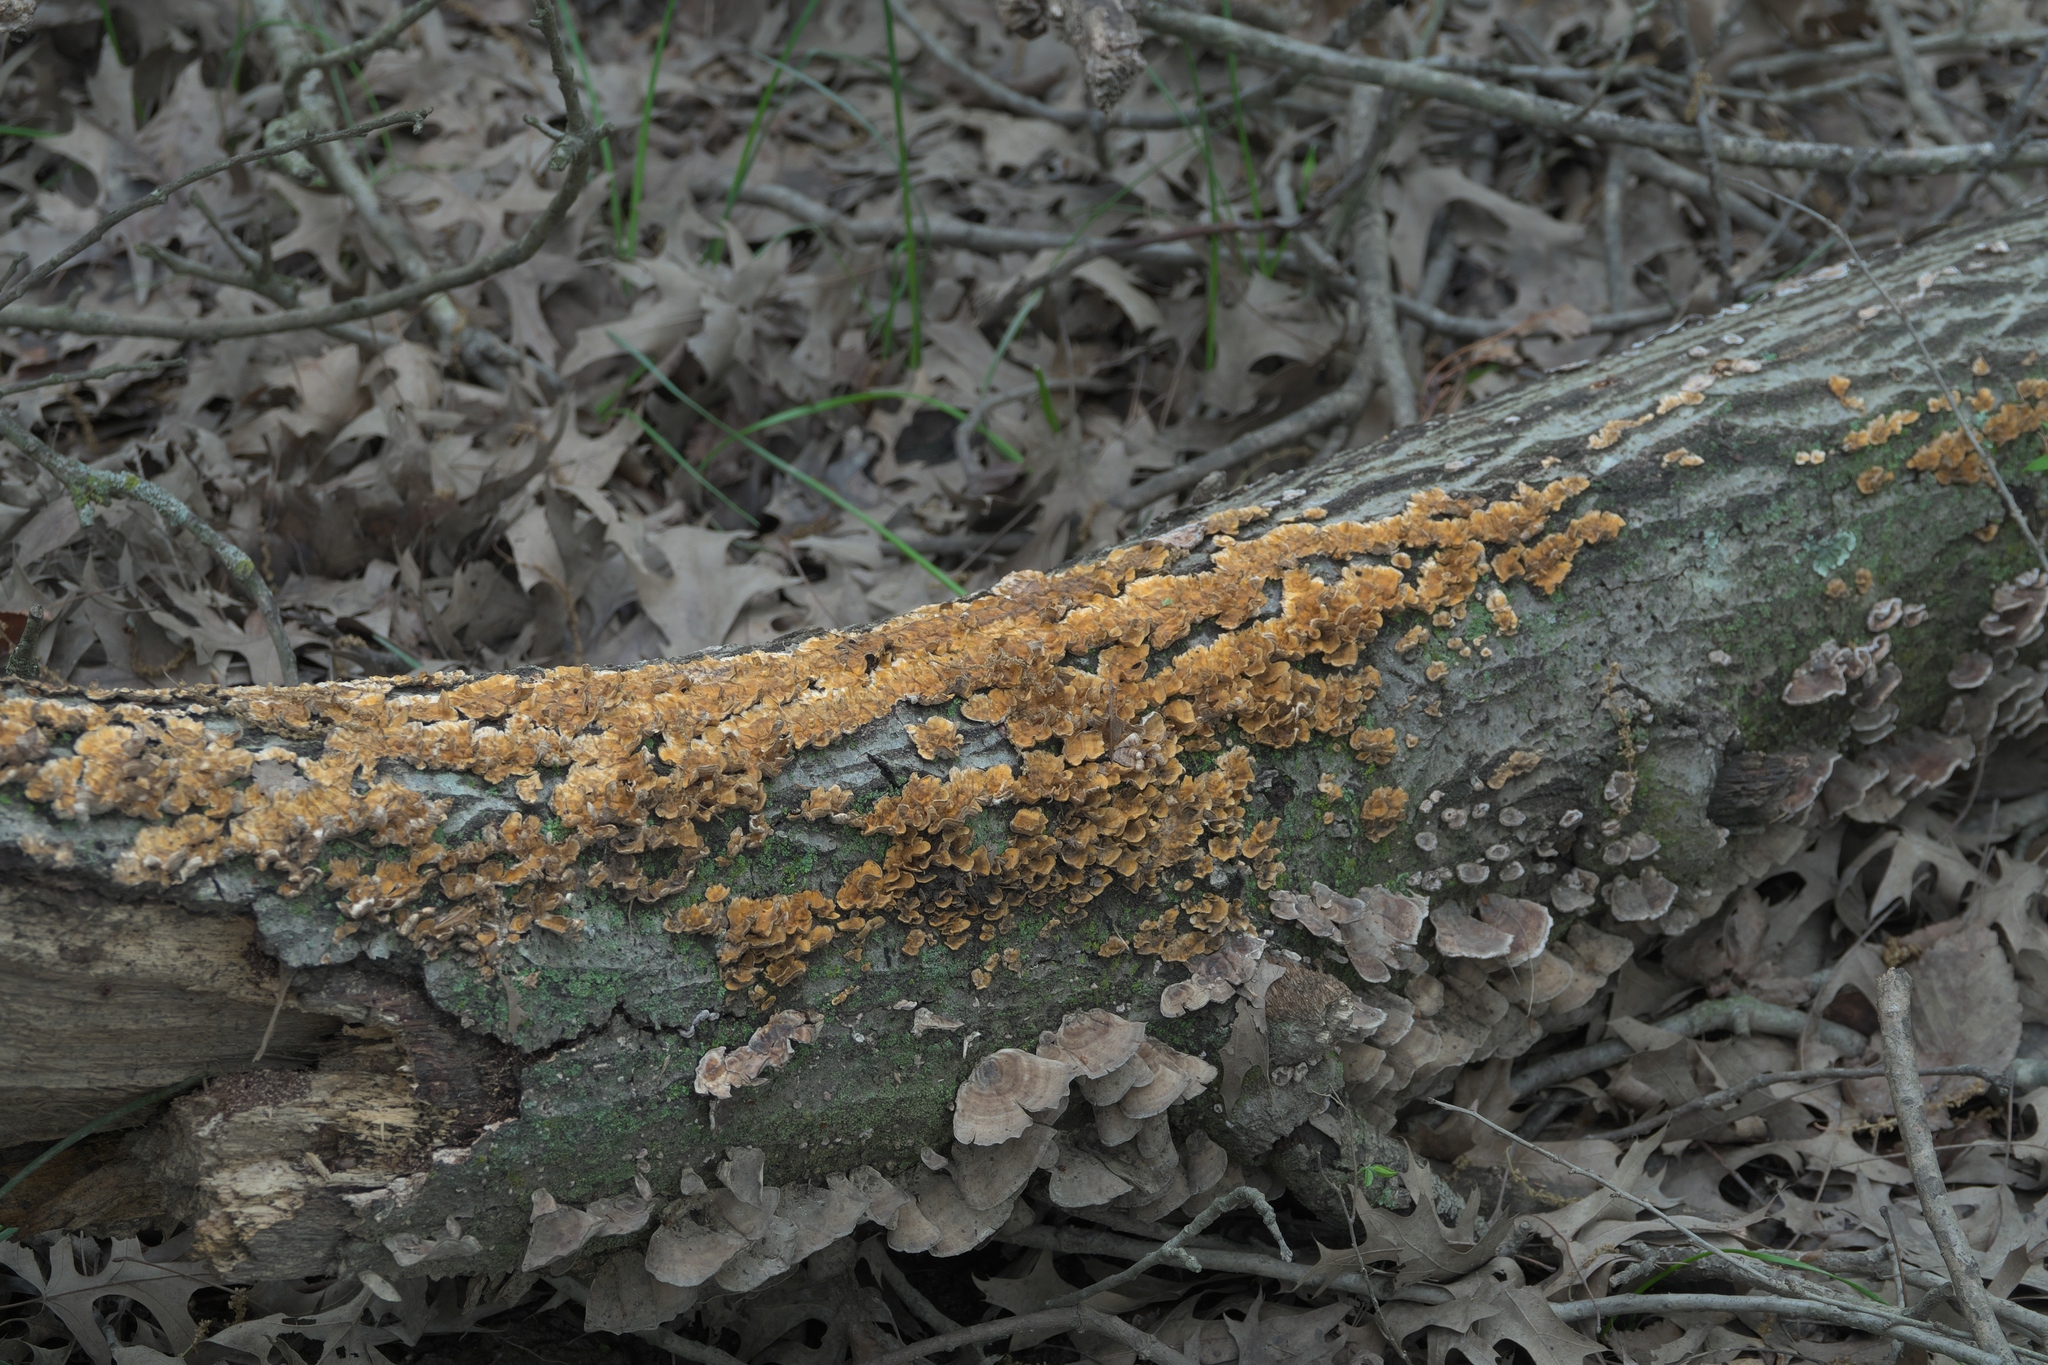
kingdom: Fungi
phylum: Basidiomycota
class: Agaricomycetes
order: Russulales
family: Stereaceae
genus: Stereum
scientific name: Stereum complicatum
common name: Crowded parchment
